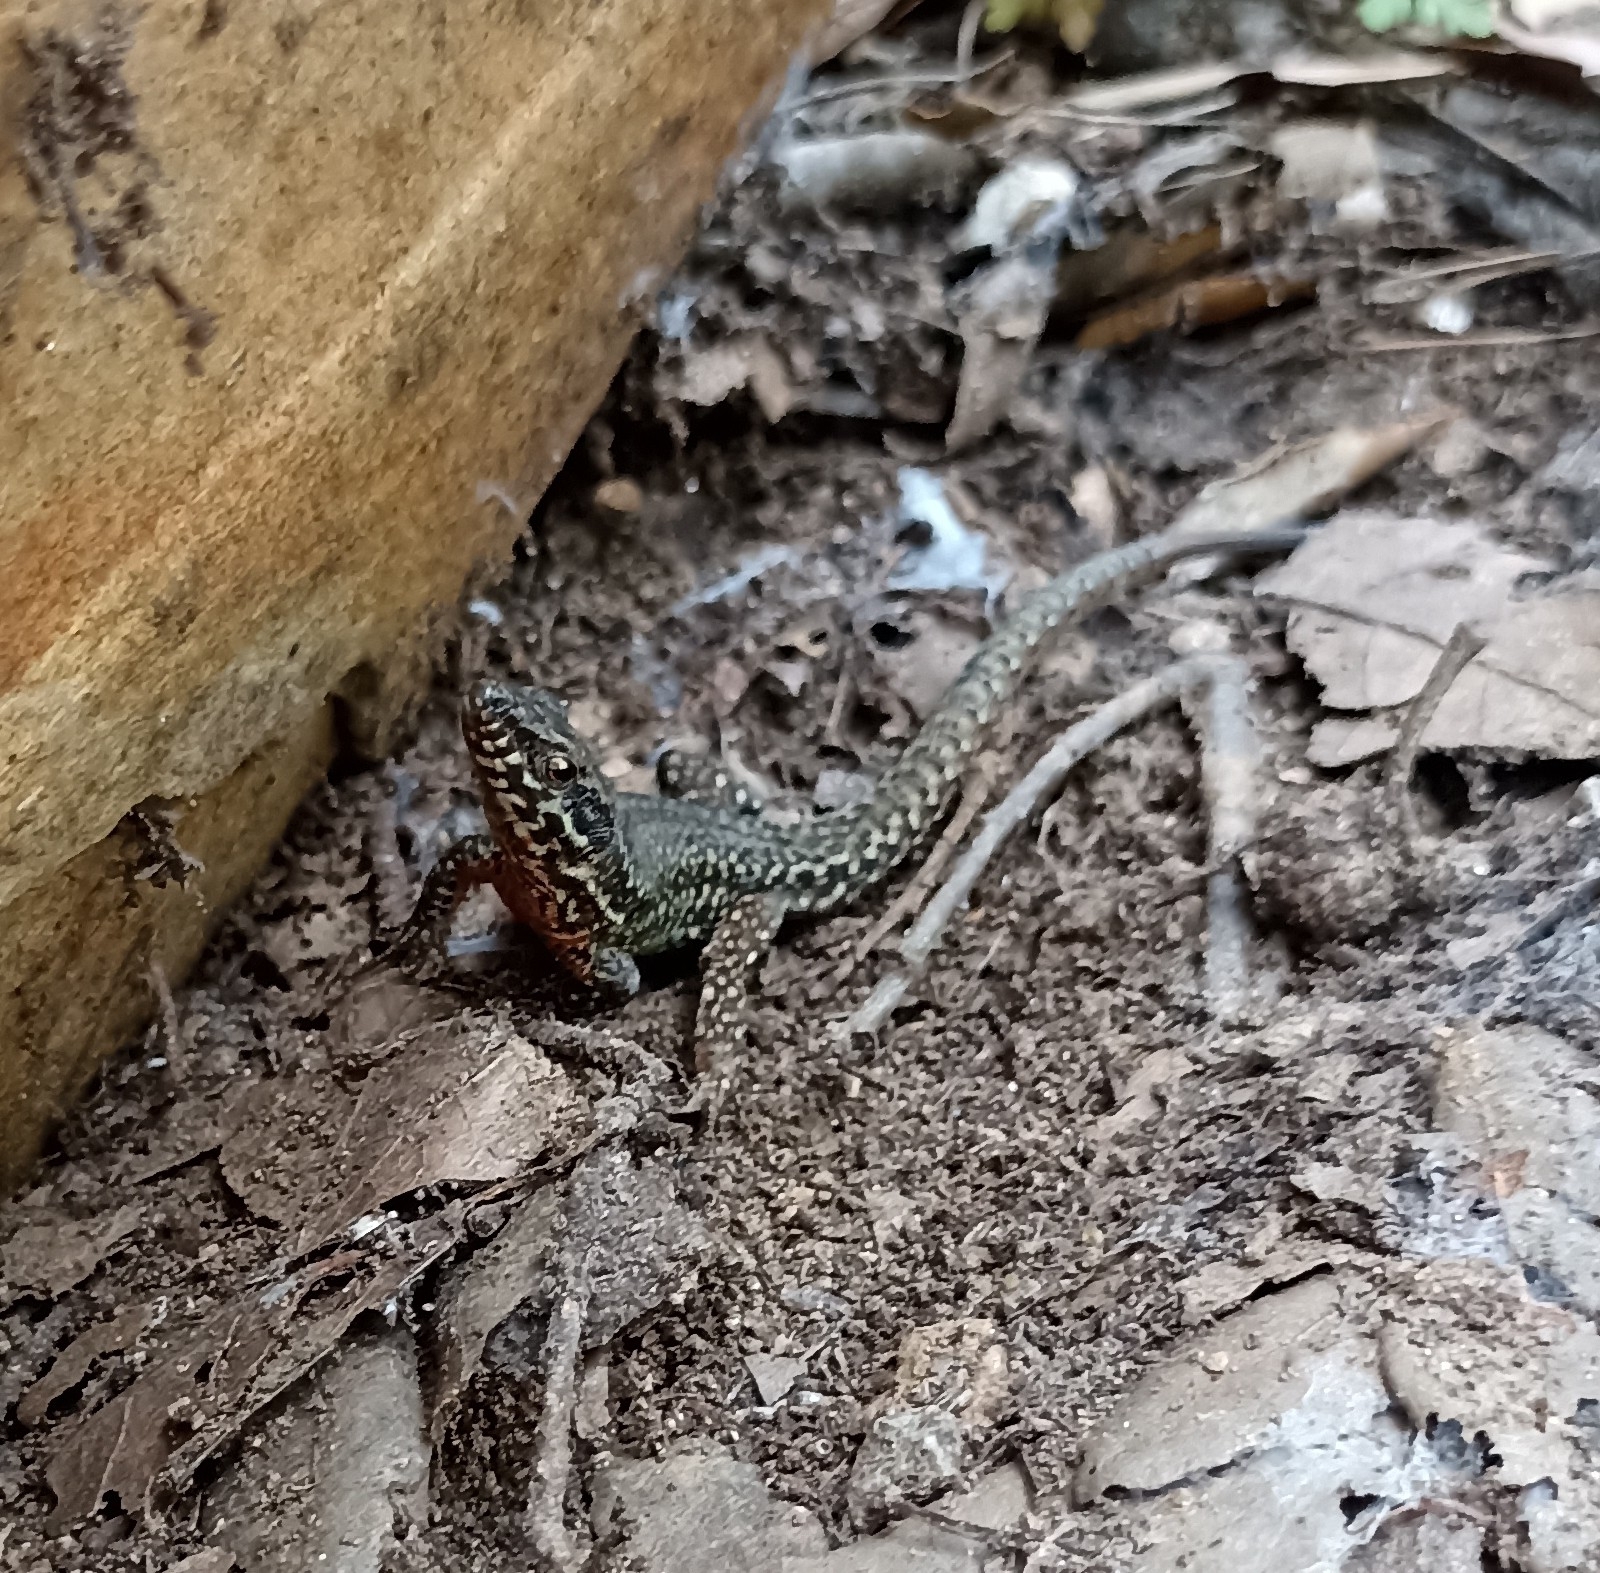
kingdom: Animalia
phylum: Chordata
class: Squamata
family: Lacertidae
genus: Podarcis
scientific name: Podarcis muralis
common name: Common wall lizard
